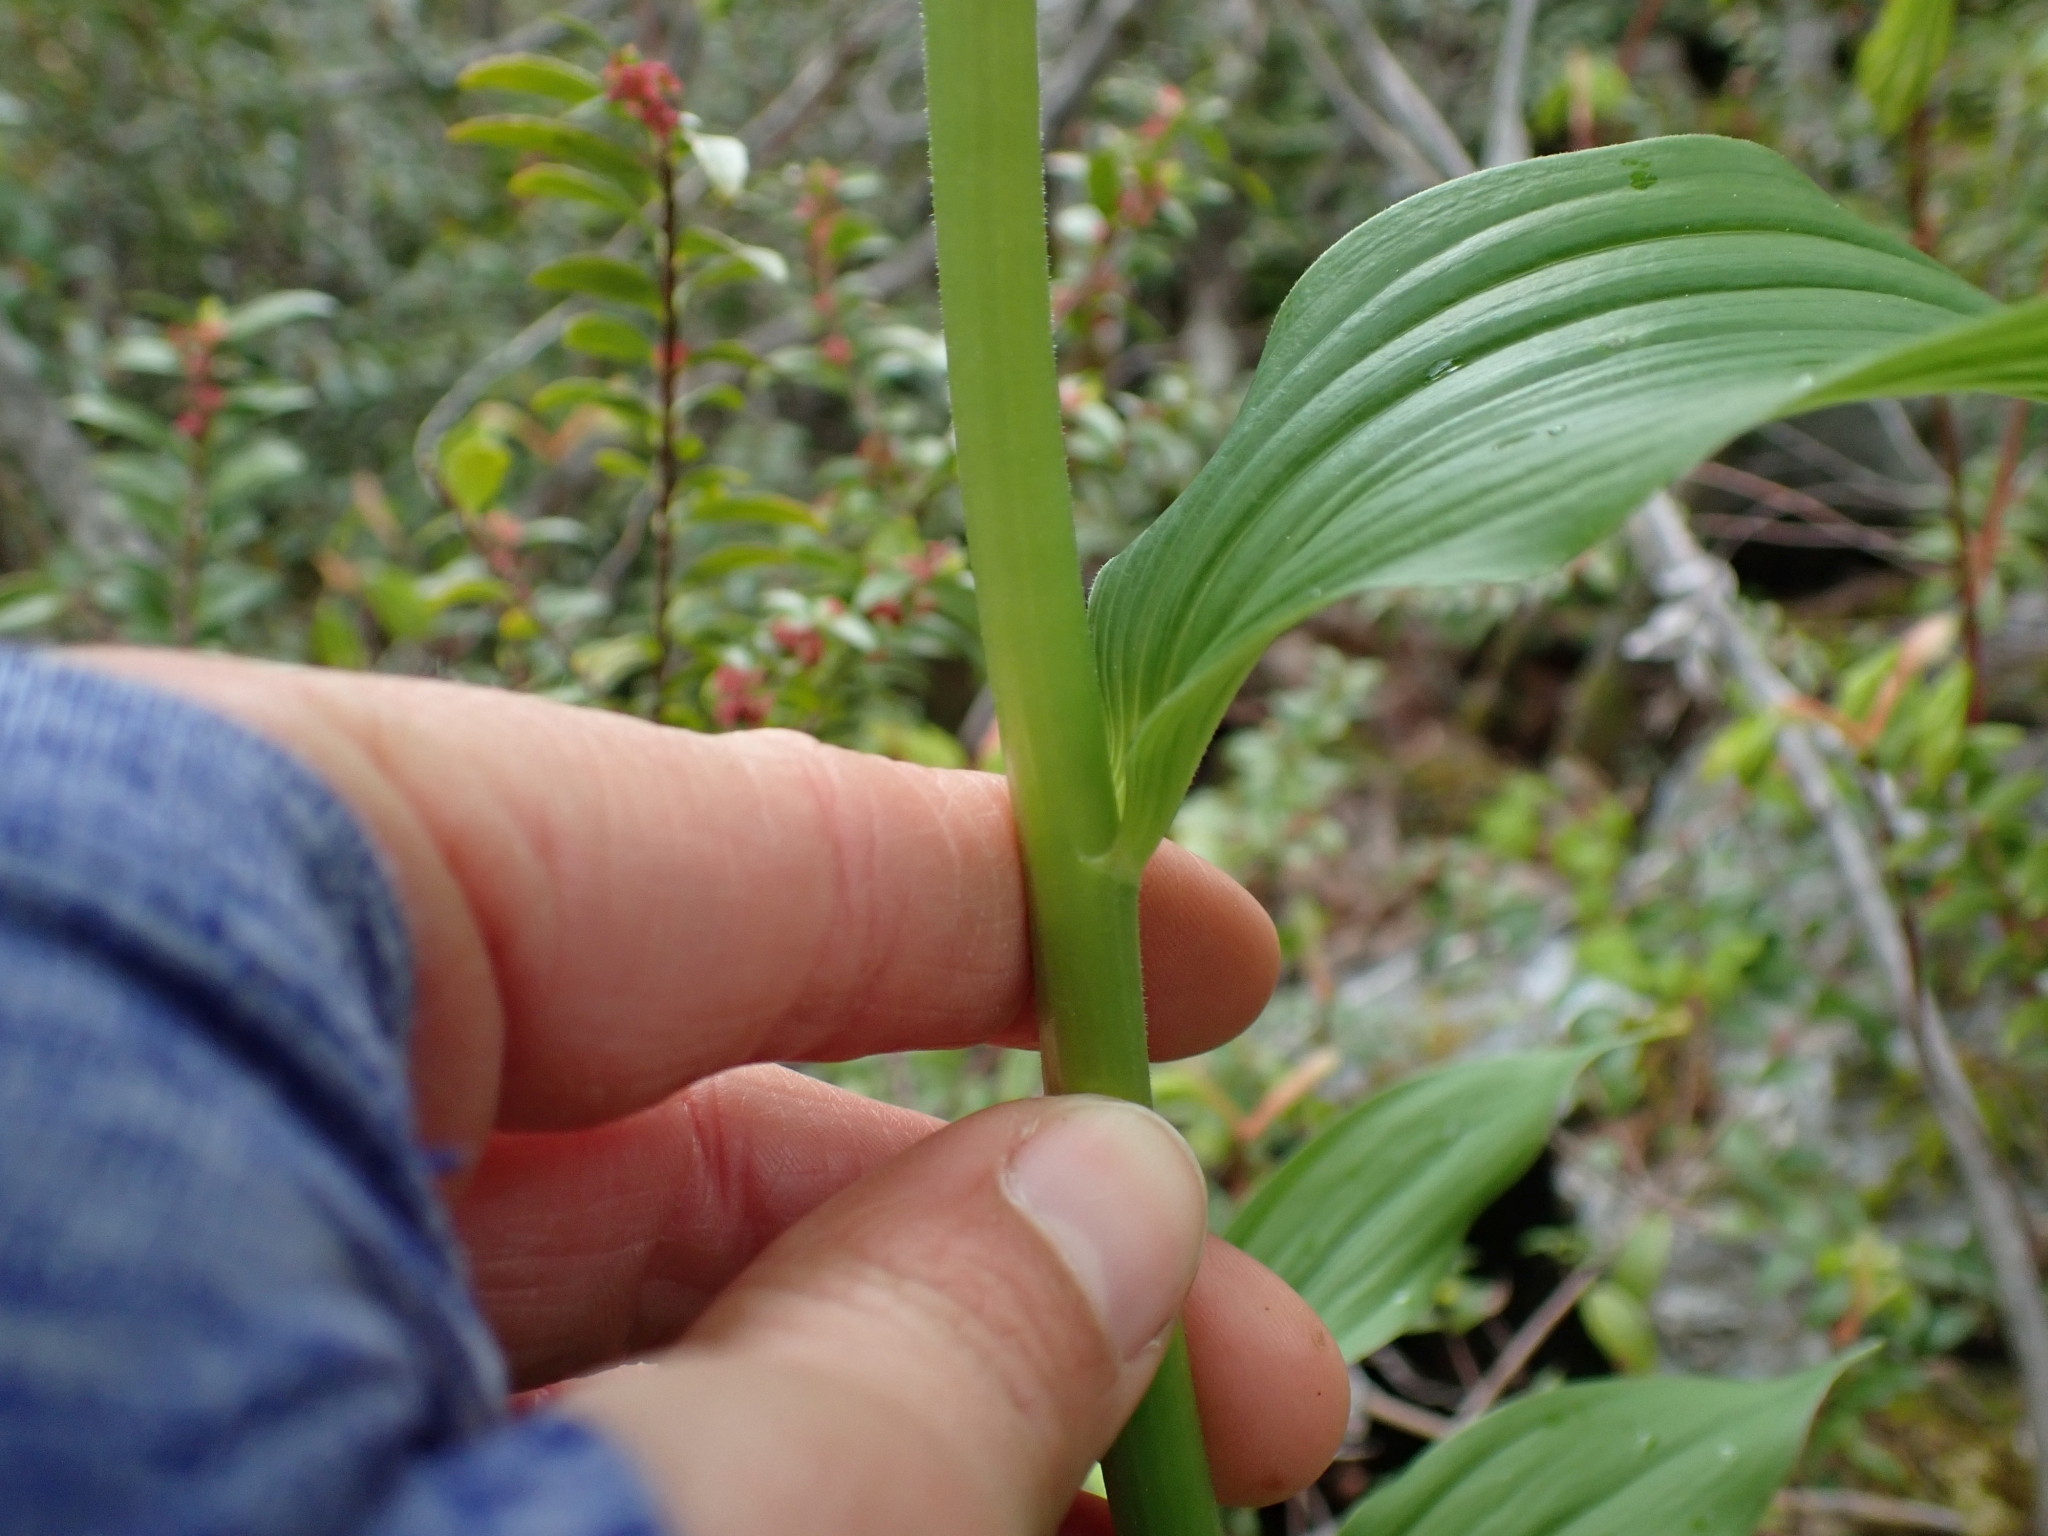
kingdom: Plantae
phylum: Tracheophyta
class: Liliopsida
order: Liliales
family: Melanthiaceae
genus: Veratrum
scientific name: Veratrum viride
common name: American false hellebore
